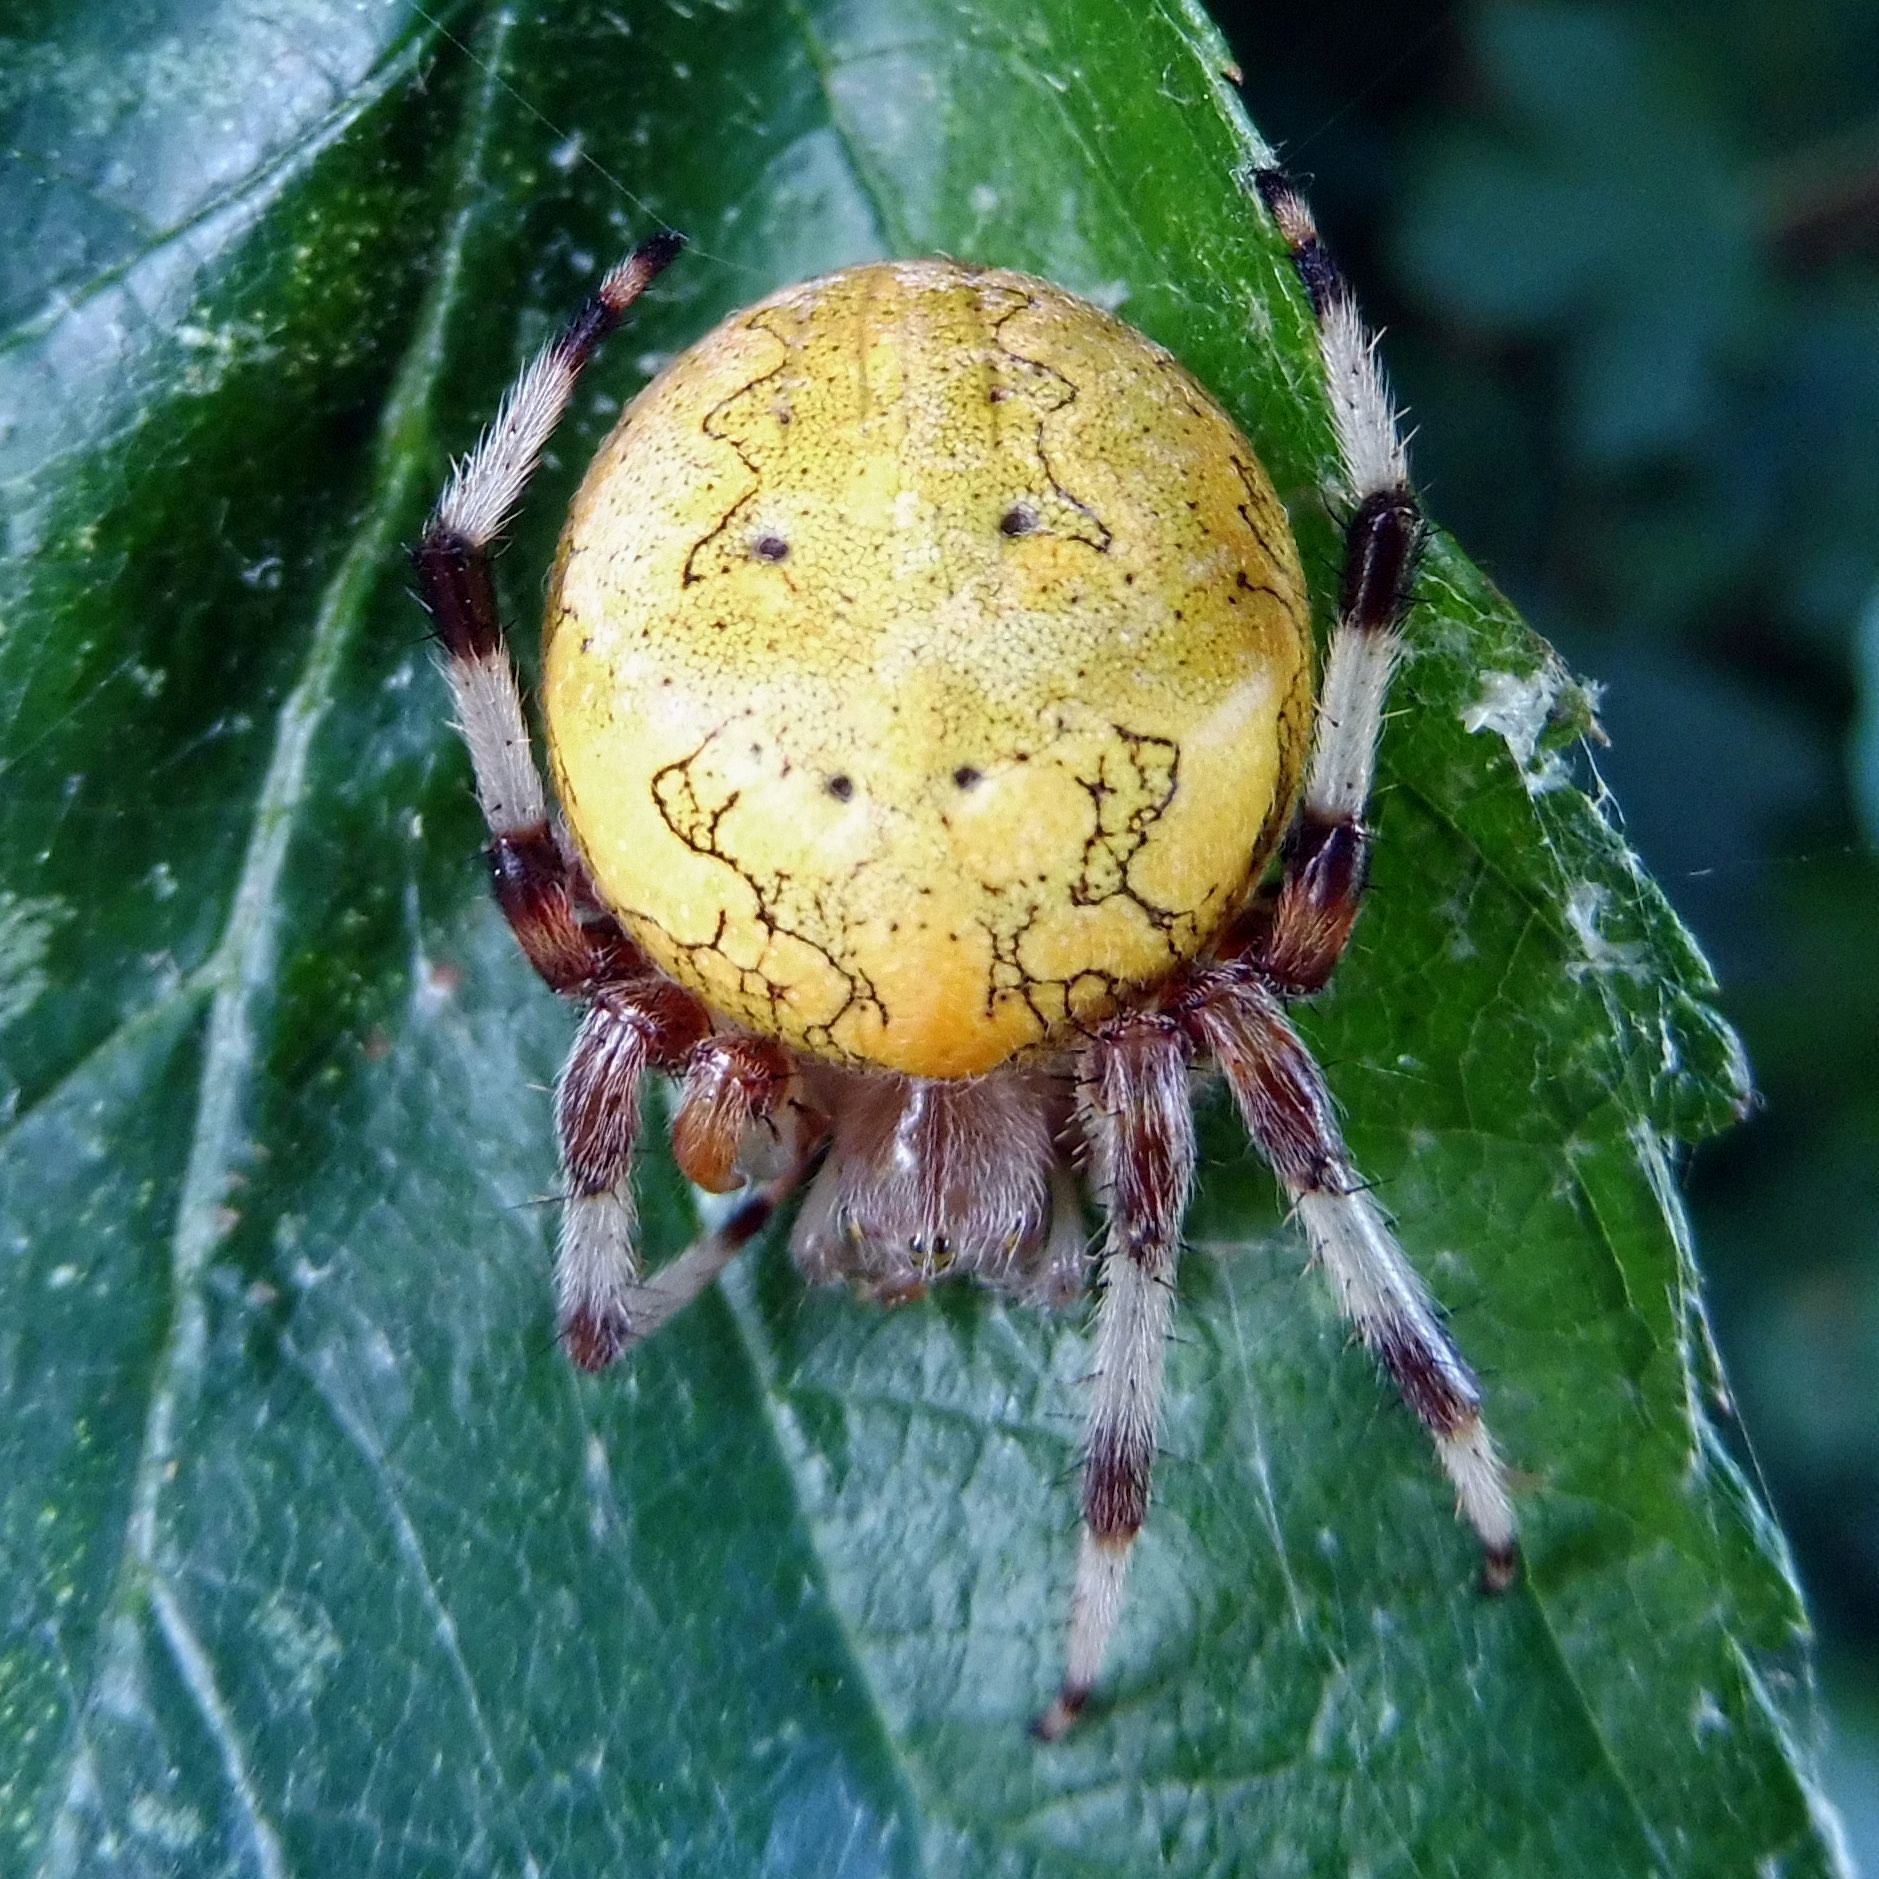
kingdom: Animalia
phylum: Arthropoda
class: Arachnida
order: Araneae
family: Araneidae
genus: Araneus
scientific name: Araneus marmoreus
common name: Marbled orbweaver
